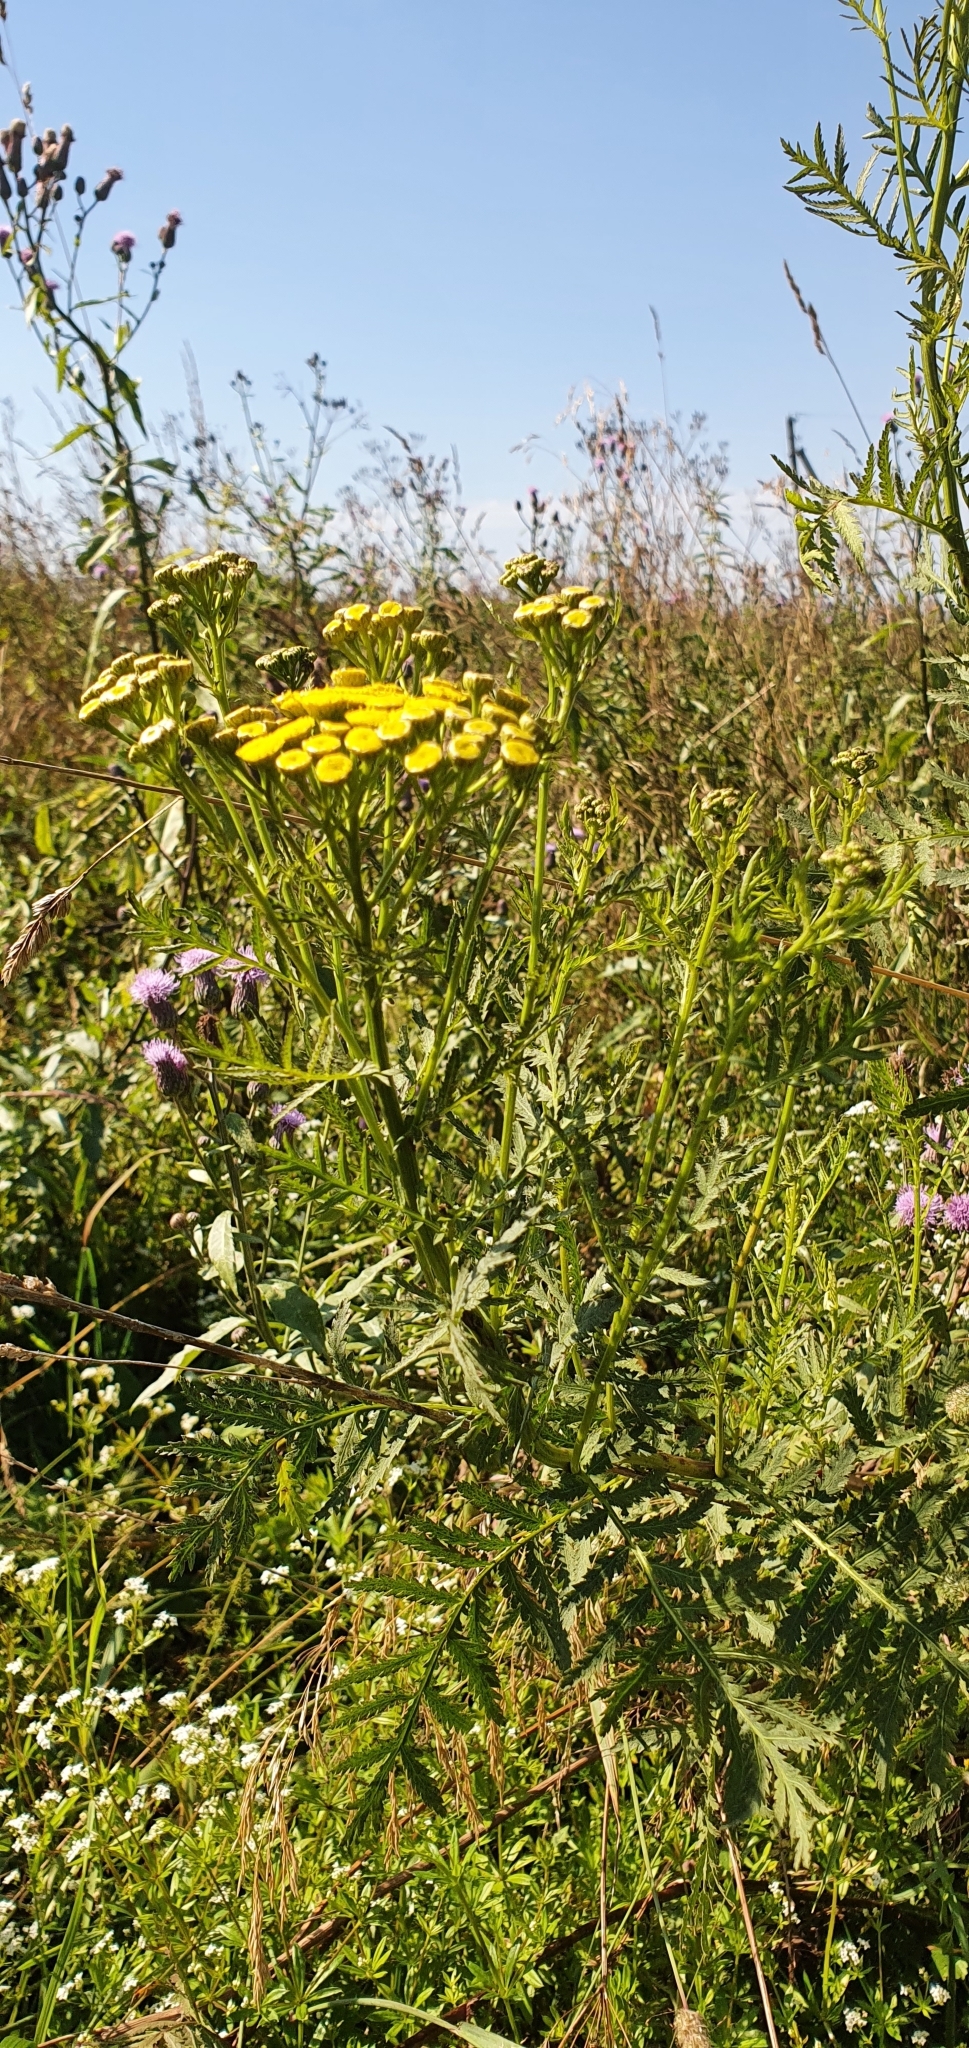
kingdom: Plantae
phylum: Tracheophyta
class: Magnoliopsida
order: Asterales
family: Asteraceae
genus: Tanacetum
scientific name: Tanacetum vulgare
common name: Common tansy
